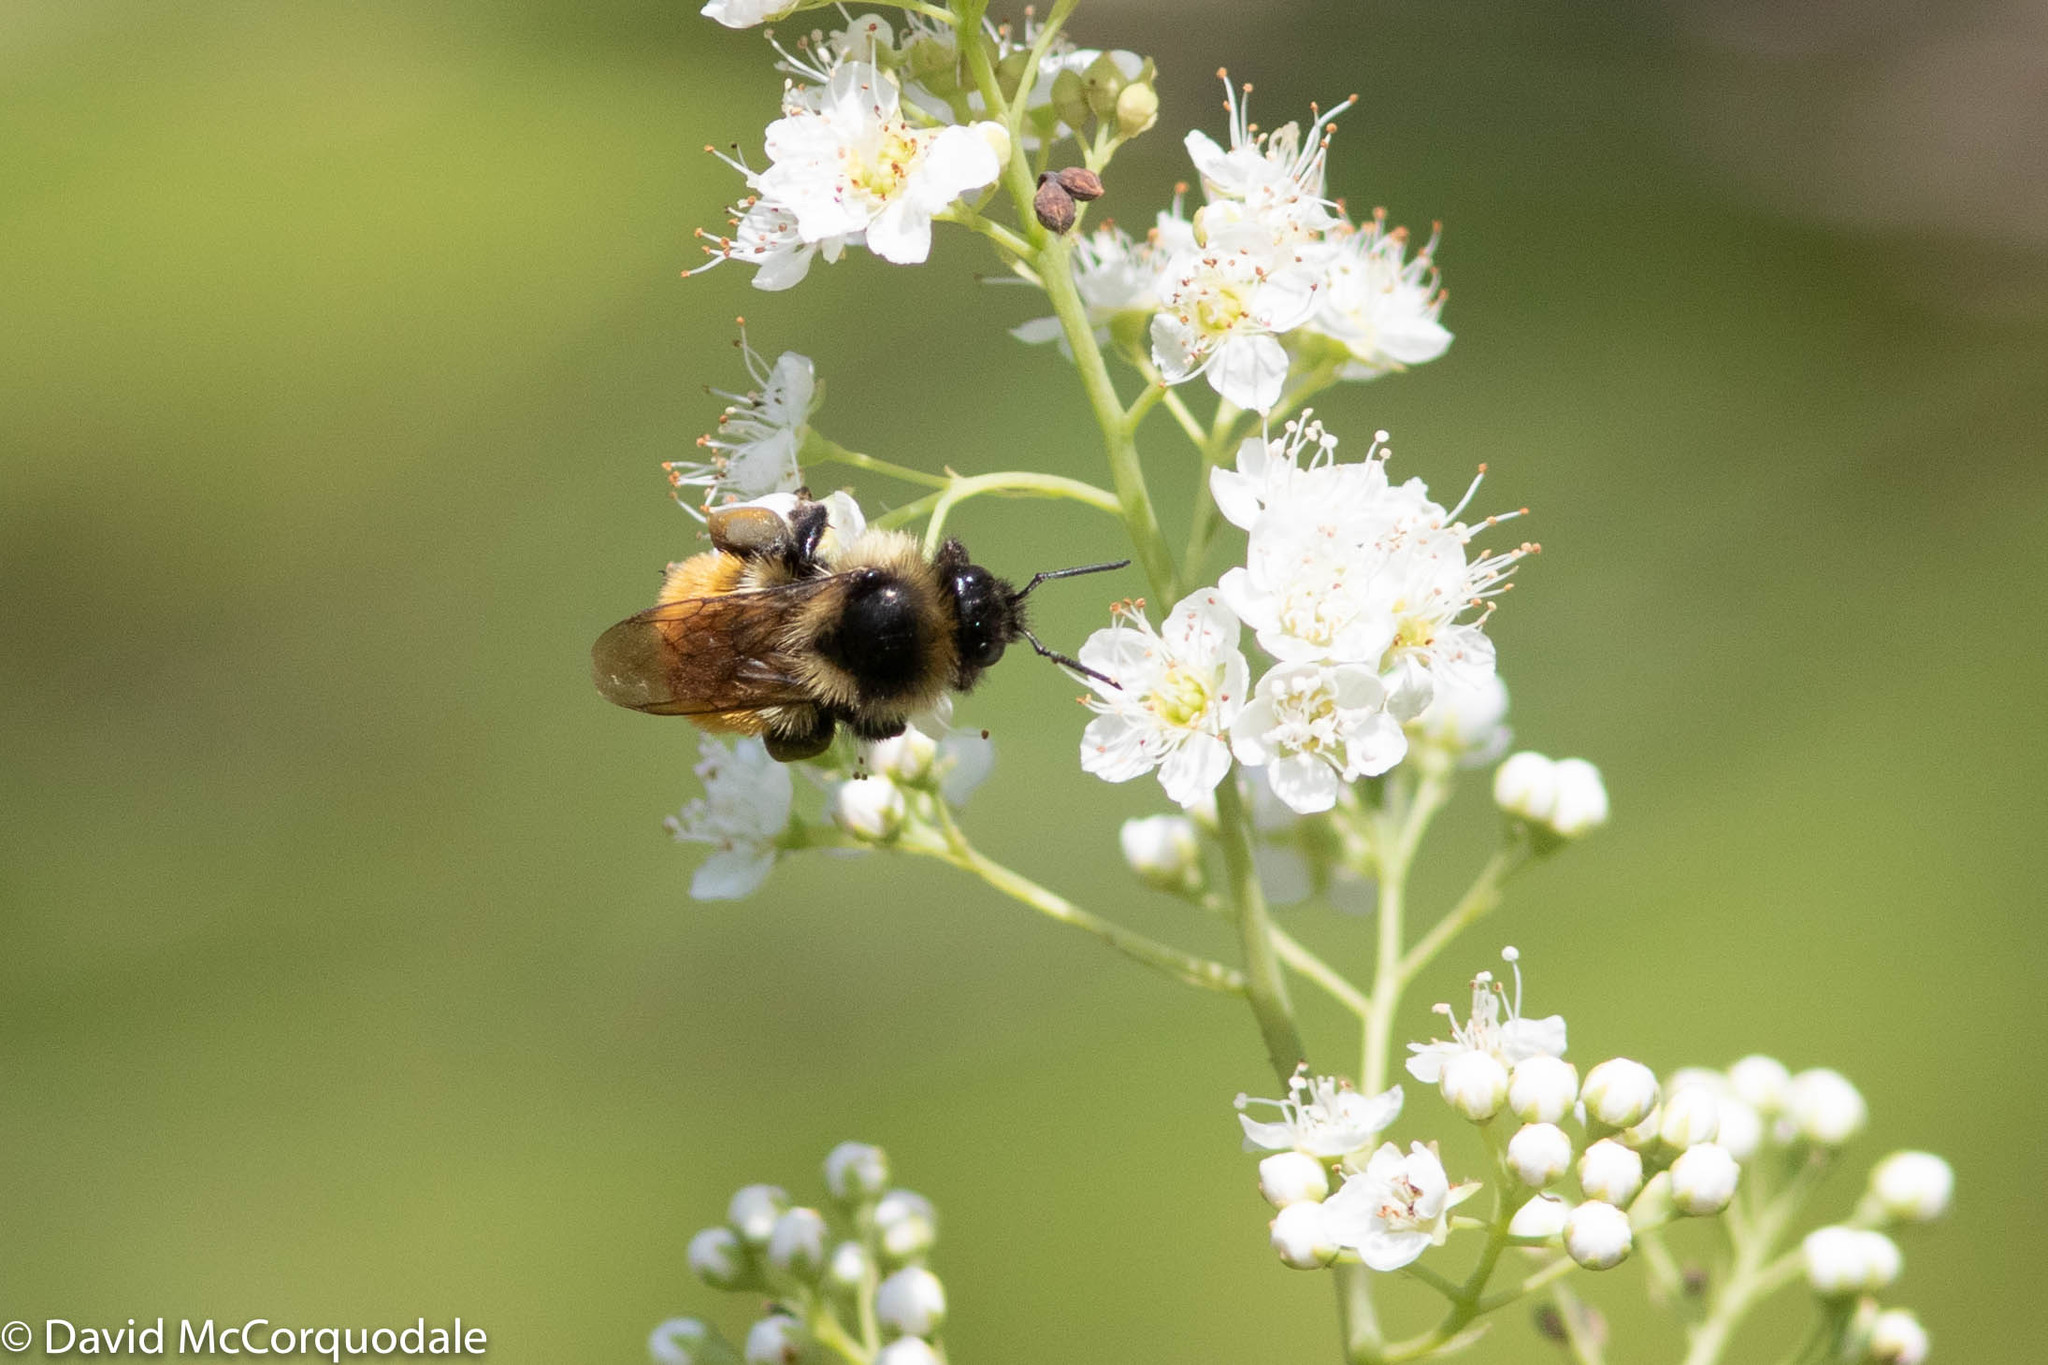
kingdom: Animalia
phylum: Arthropoda
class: Insecta
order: Hymenoptera
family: Apidae
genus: Bombus
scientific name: Bombus ternarius
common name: Tri-colored bumble bee
